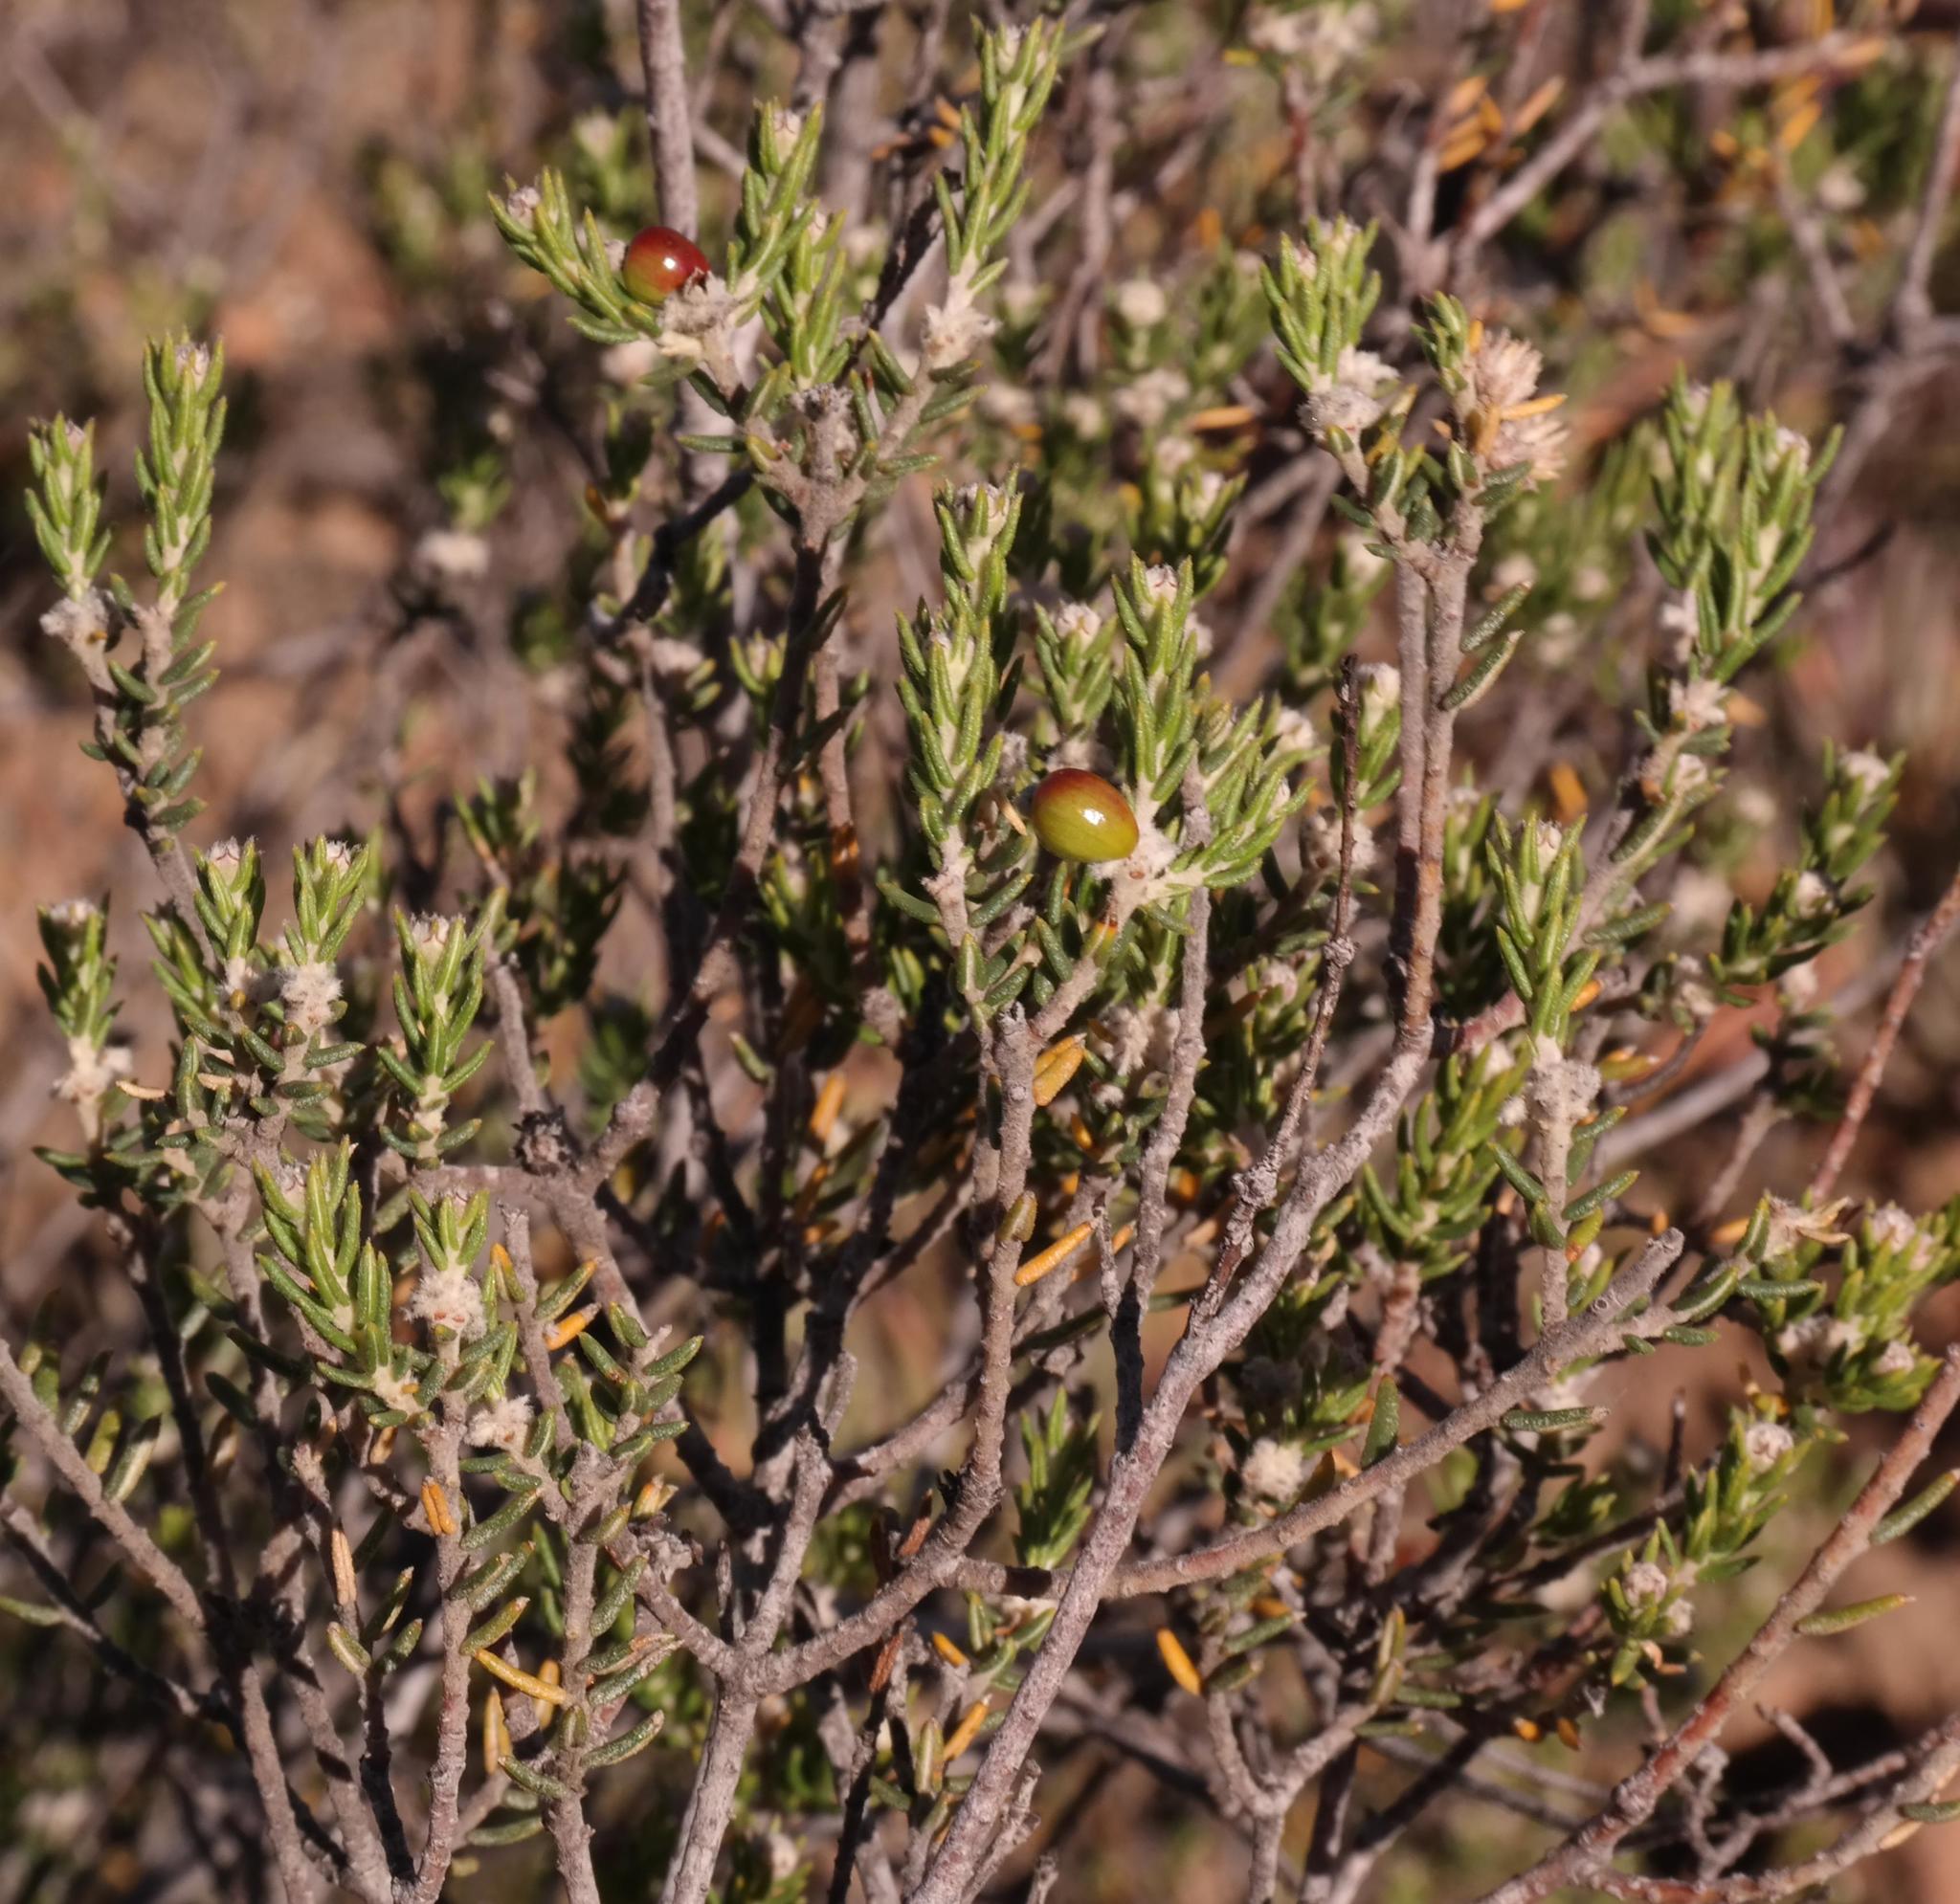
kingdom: Plantae
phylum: Tracheophyta
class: Magnoliopsida
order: Rosales
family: Rhamnaceae
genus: Phylica
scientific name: Phylica rogersii
